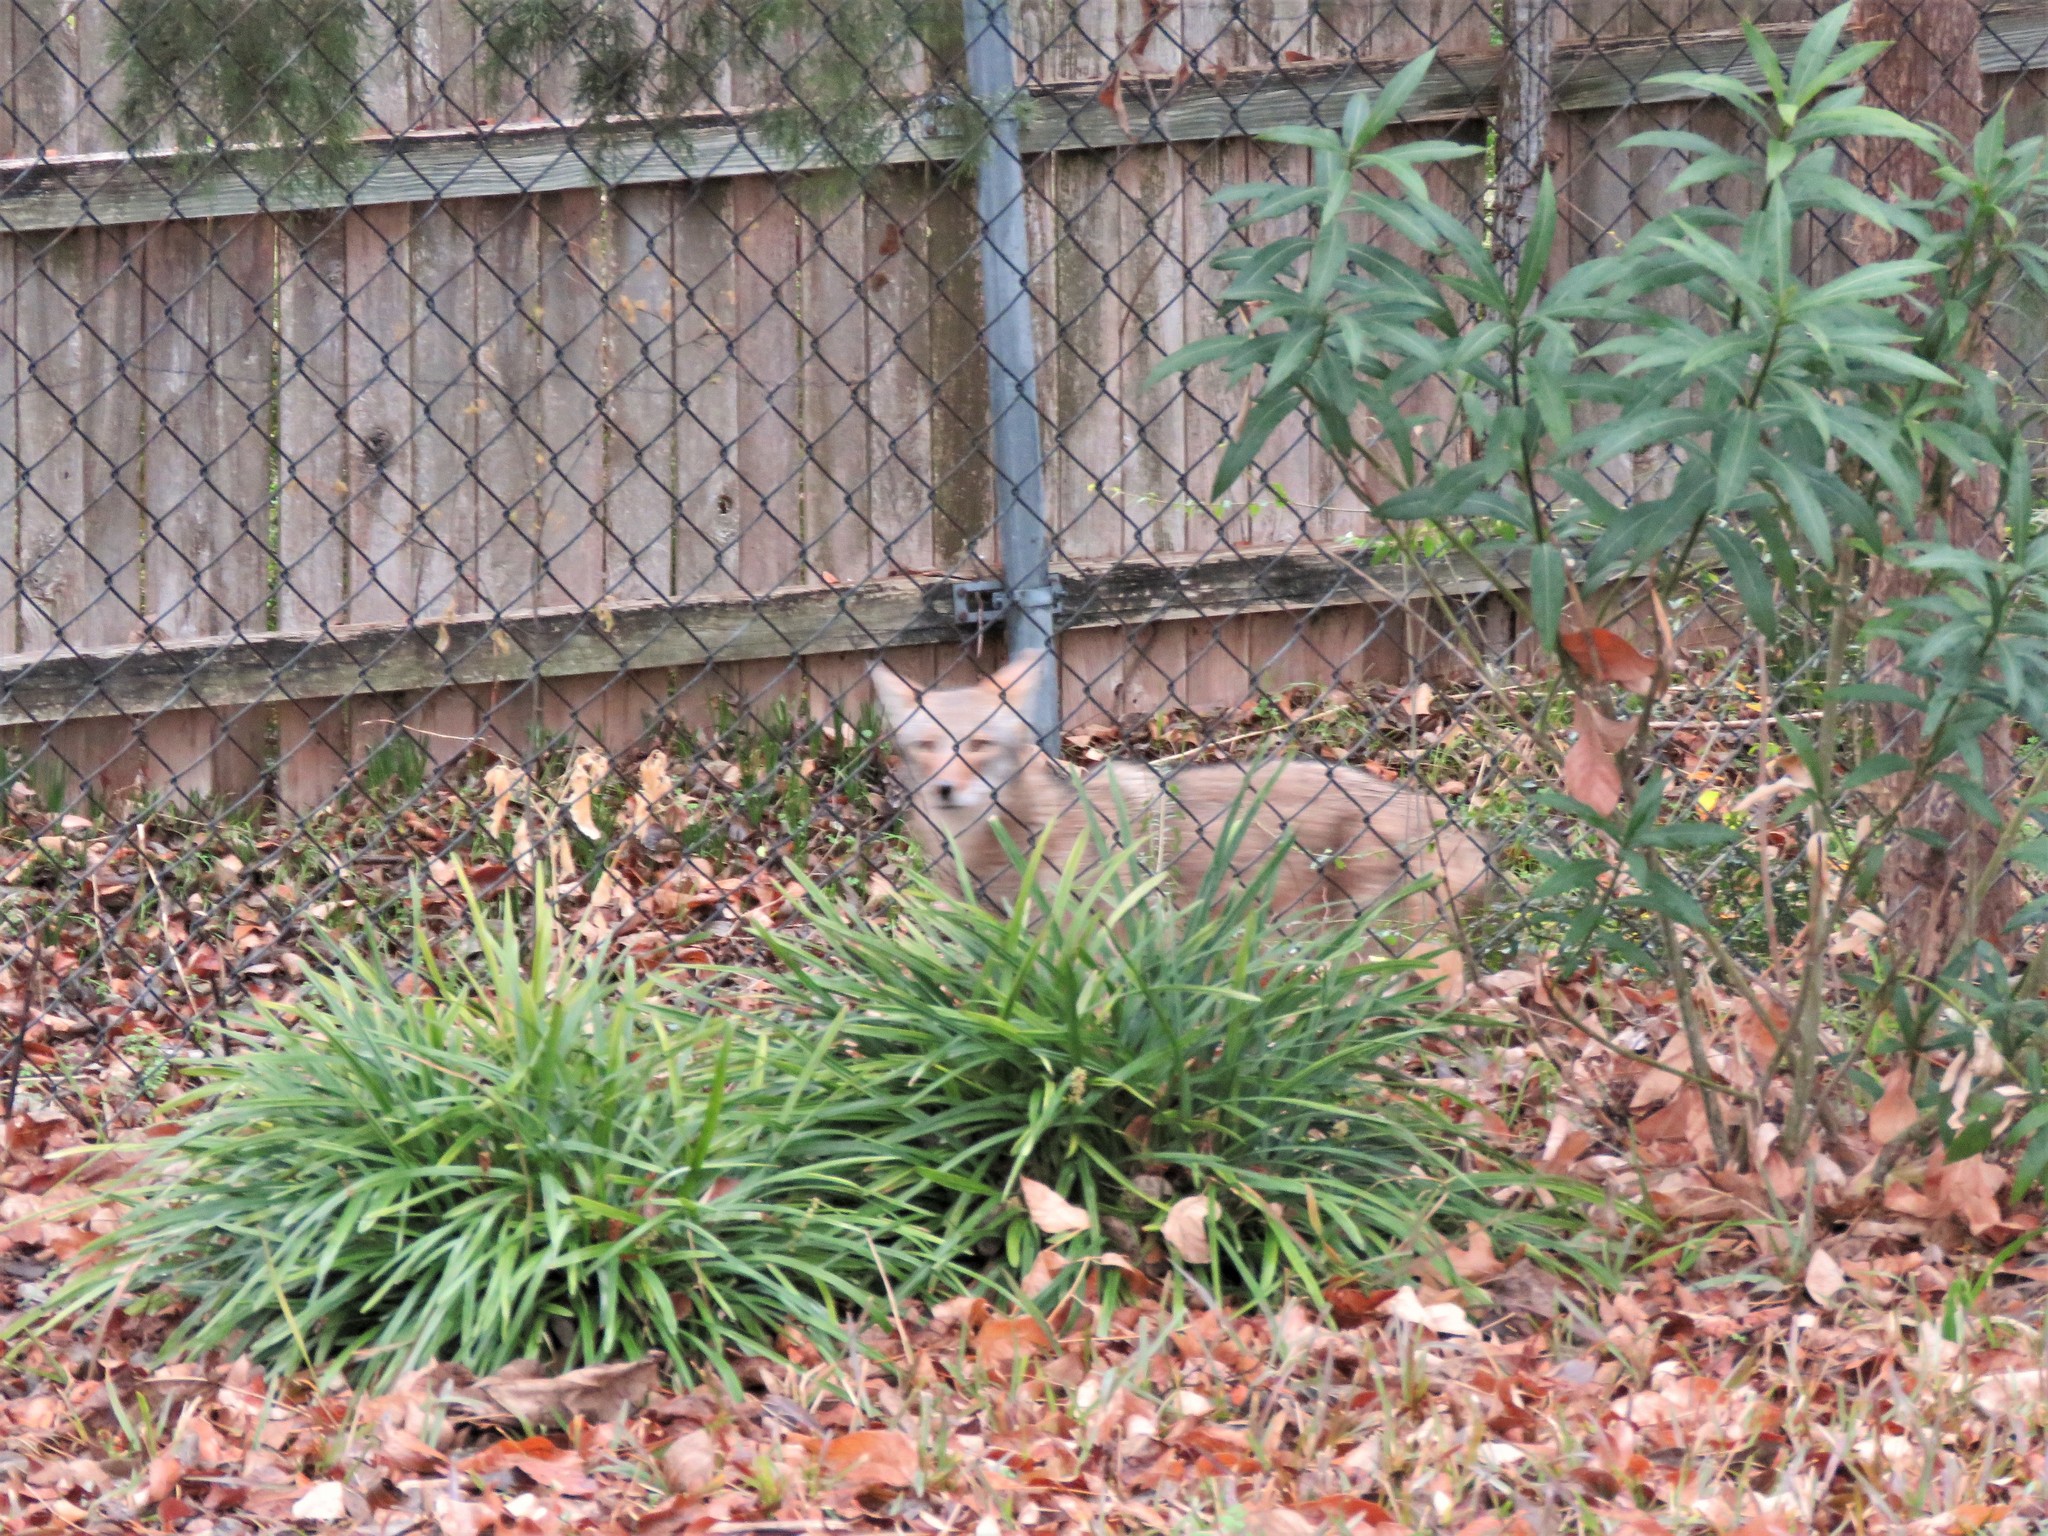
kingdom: Animalia
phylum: Chordata
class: Mammalia
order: Carnivora
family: Canidae
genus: Canis
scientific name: Canis latrans
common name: Coyote
